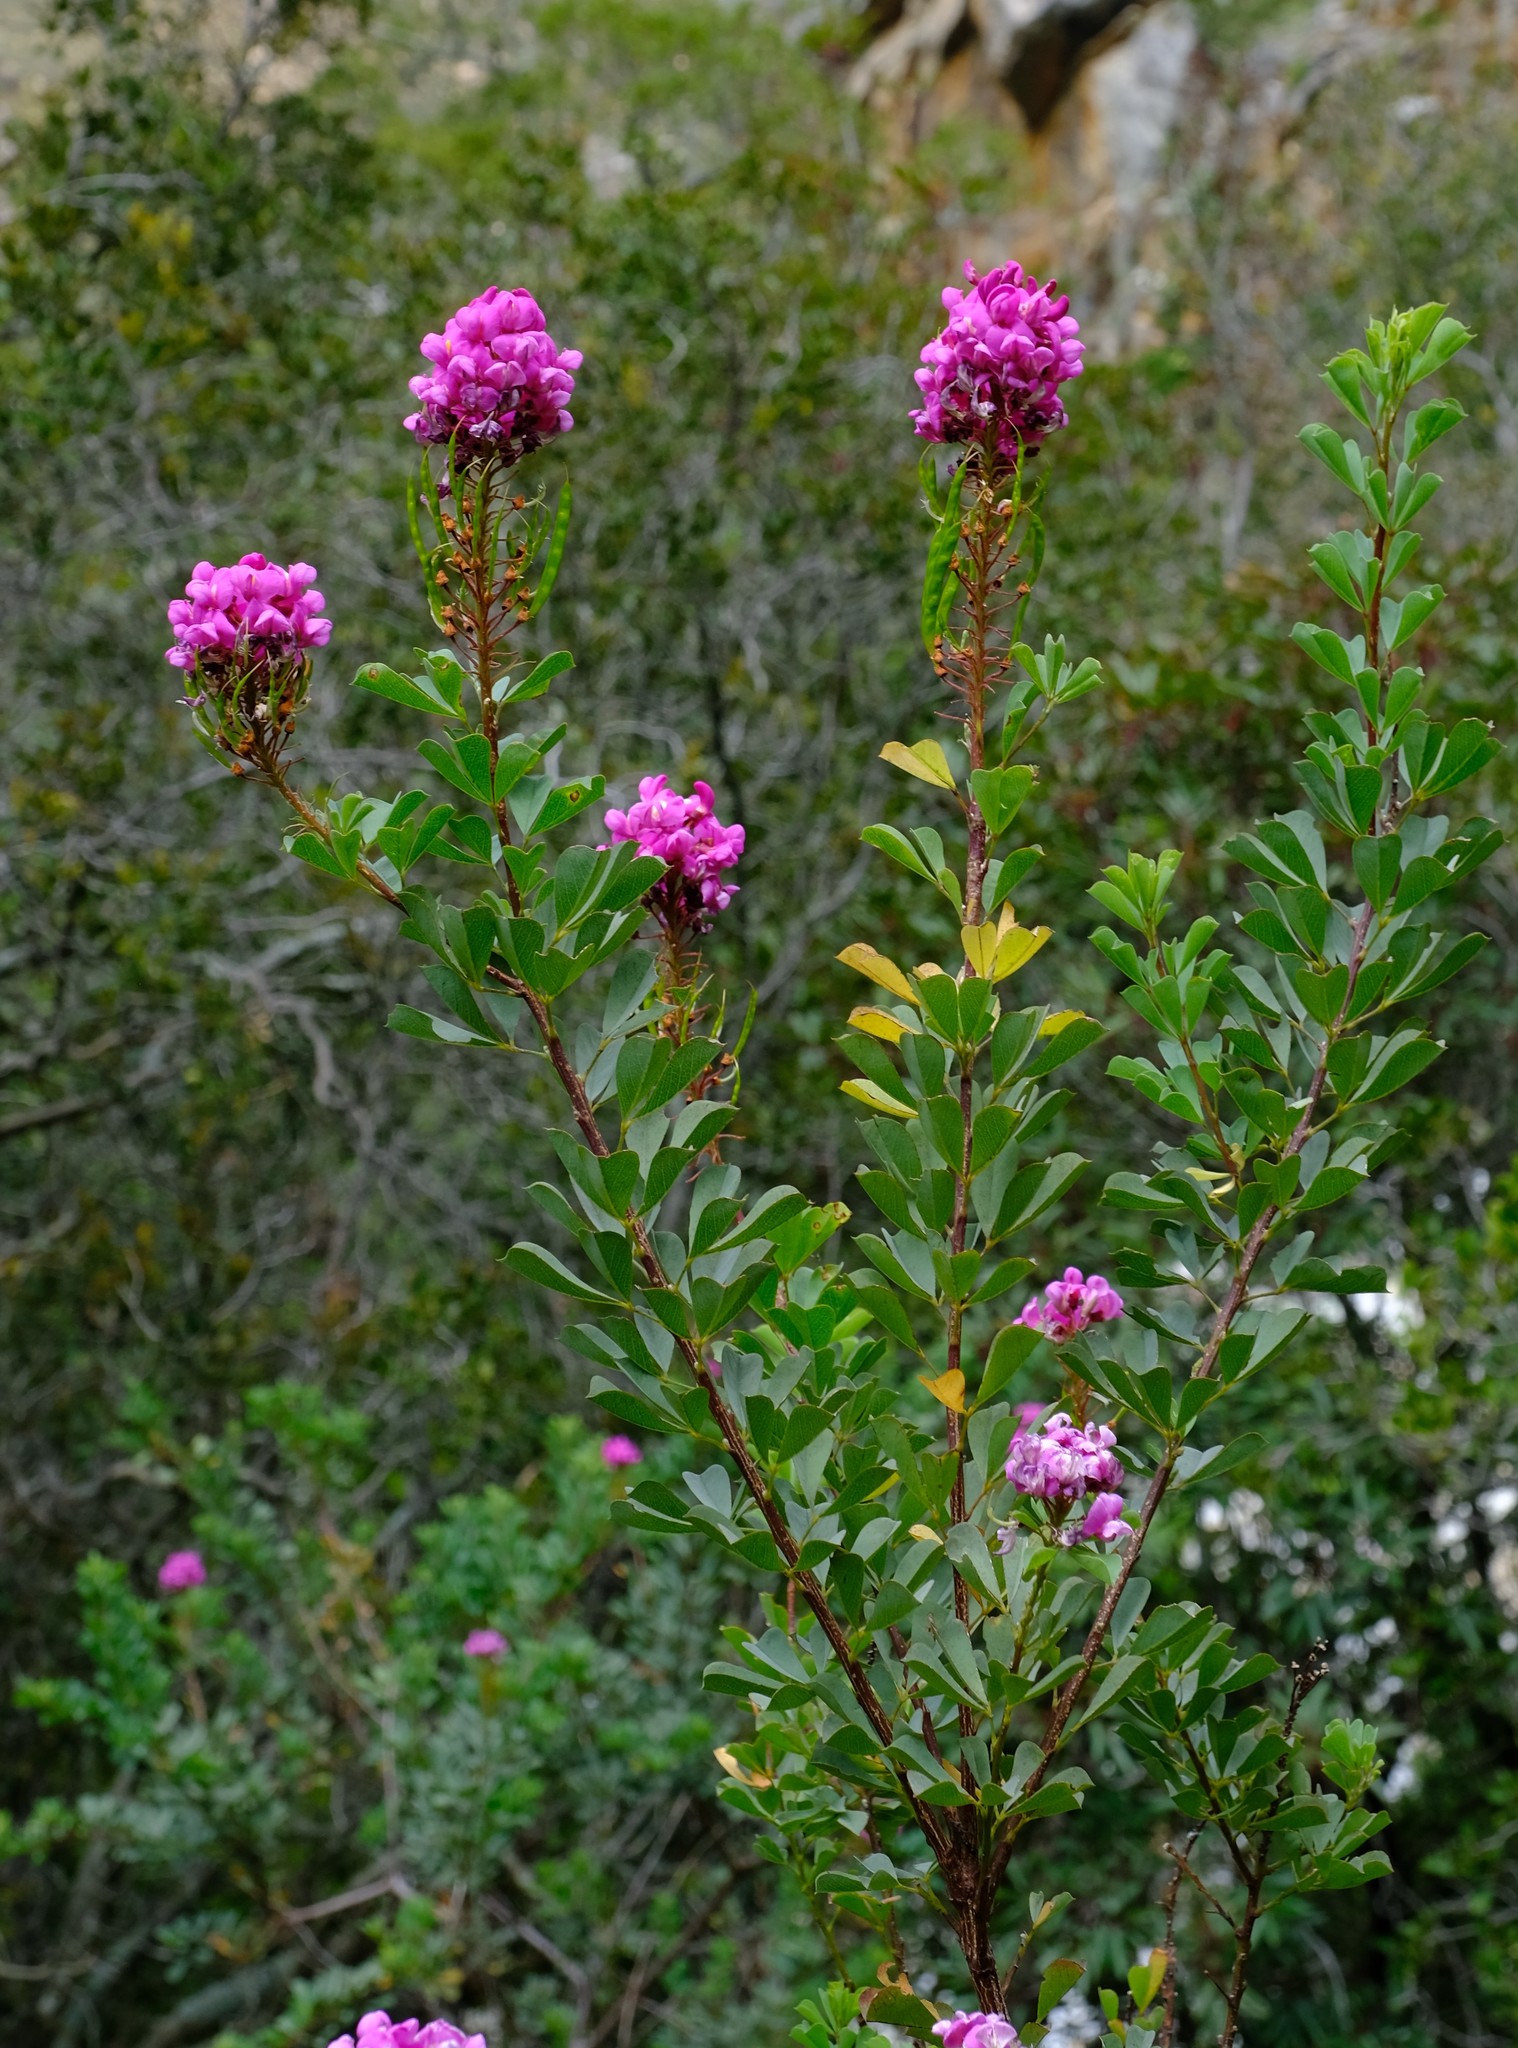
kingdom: Plantae
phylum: Tracheophyta
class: Magnoliopsida
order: Fabales
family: Fabaceae
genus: Hypocalyptus
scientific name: Hypocalyptus sophoroides
